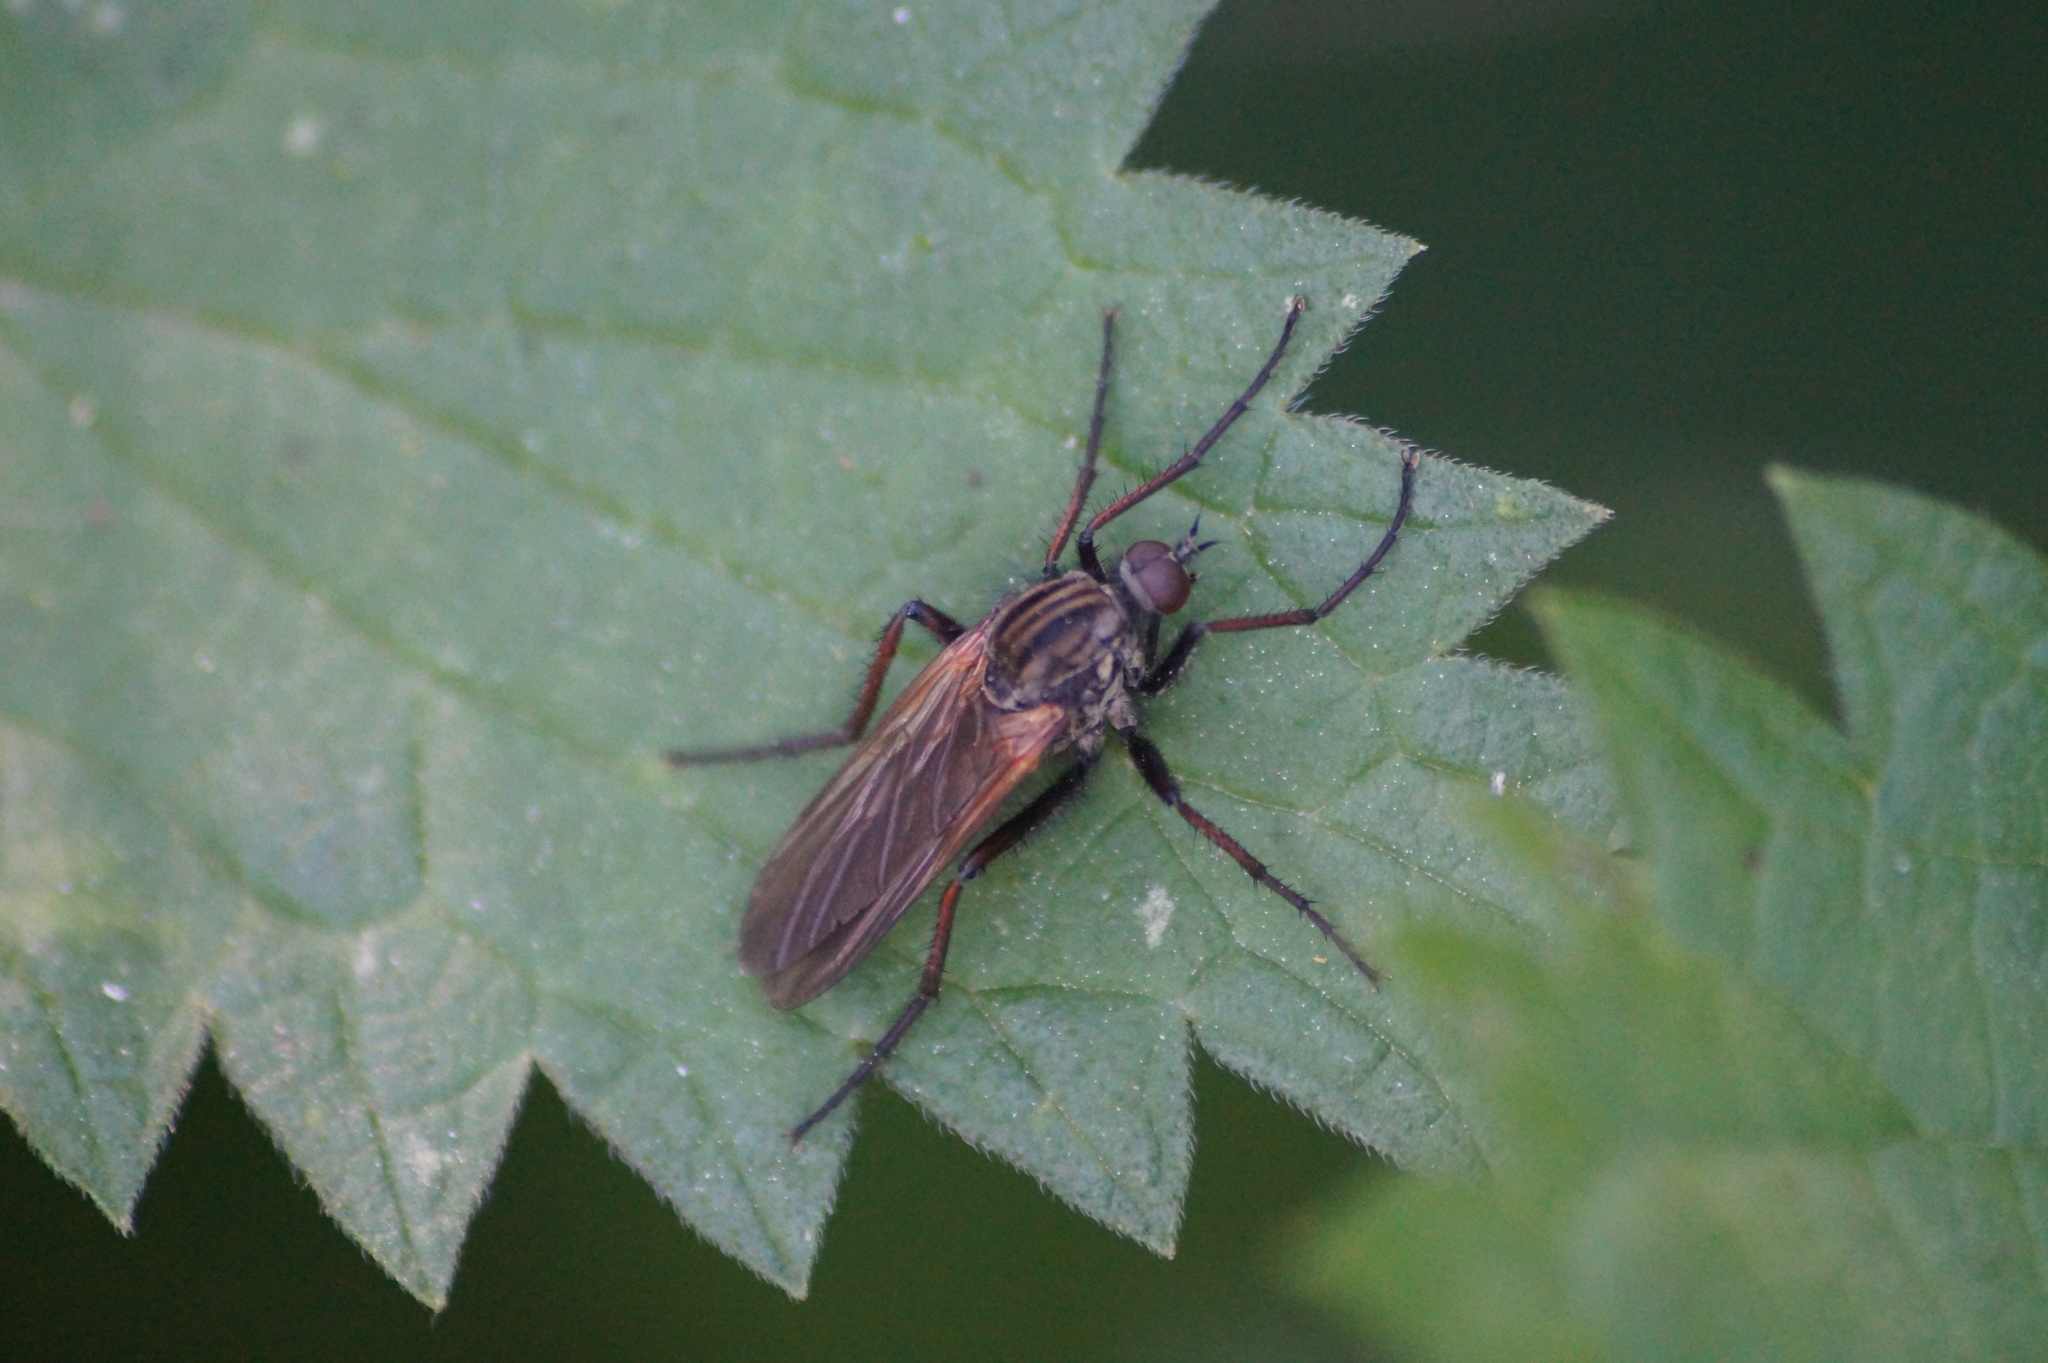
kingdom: Animalia
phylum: Arthropoda
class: Insecta
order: Diptera
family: Empididae
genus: Empis
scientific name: Empis tessellata
